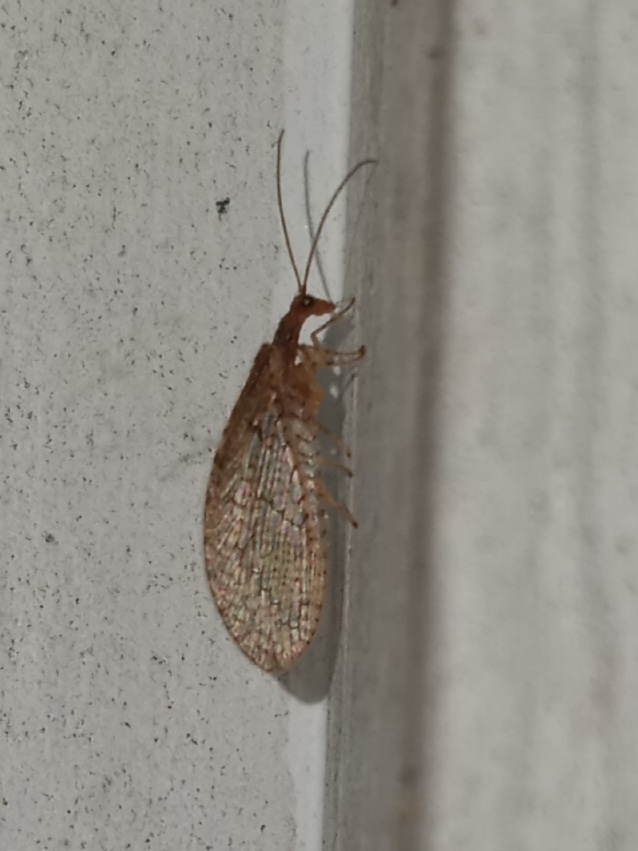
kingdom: Animalia
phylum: Arthropoda
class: Insecta
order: Neuroptera
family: Hemerobiidae
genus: Micromus
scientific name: Micromus posticus
